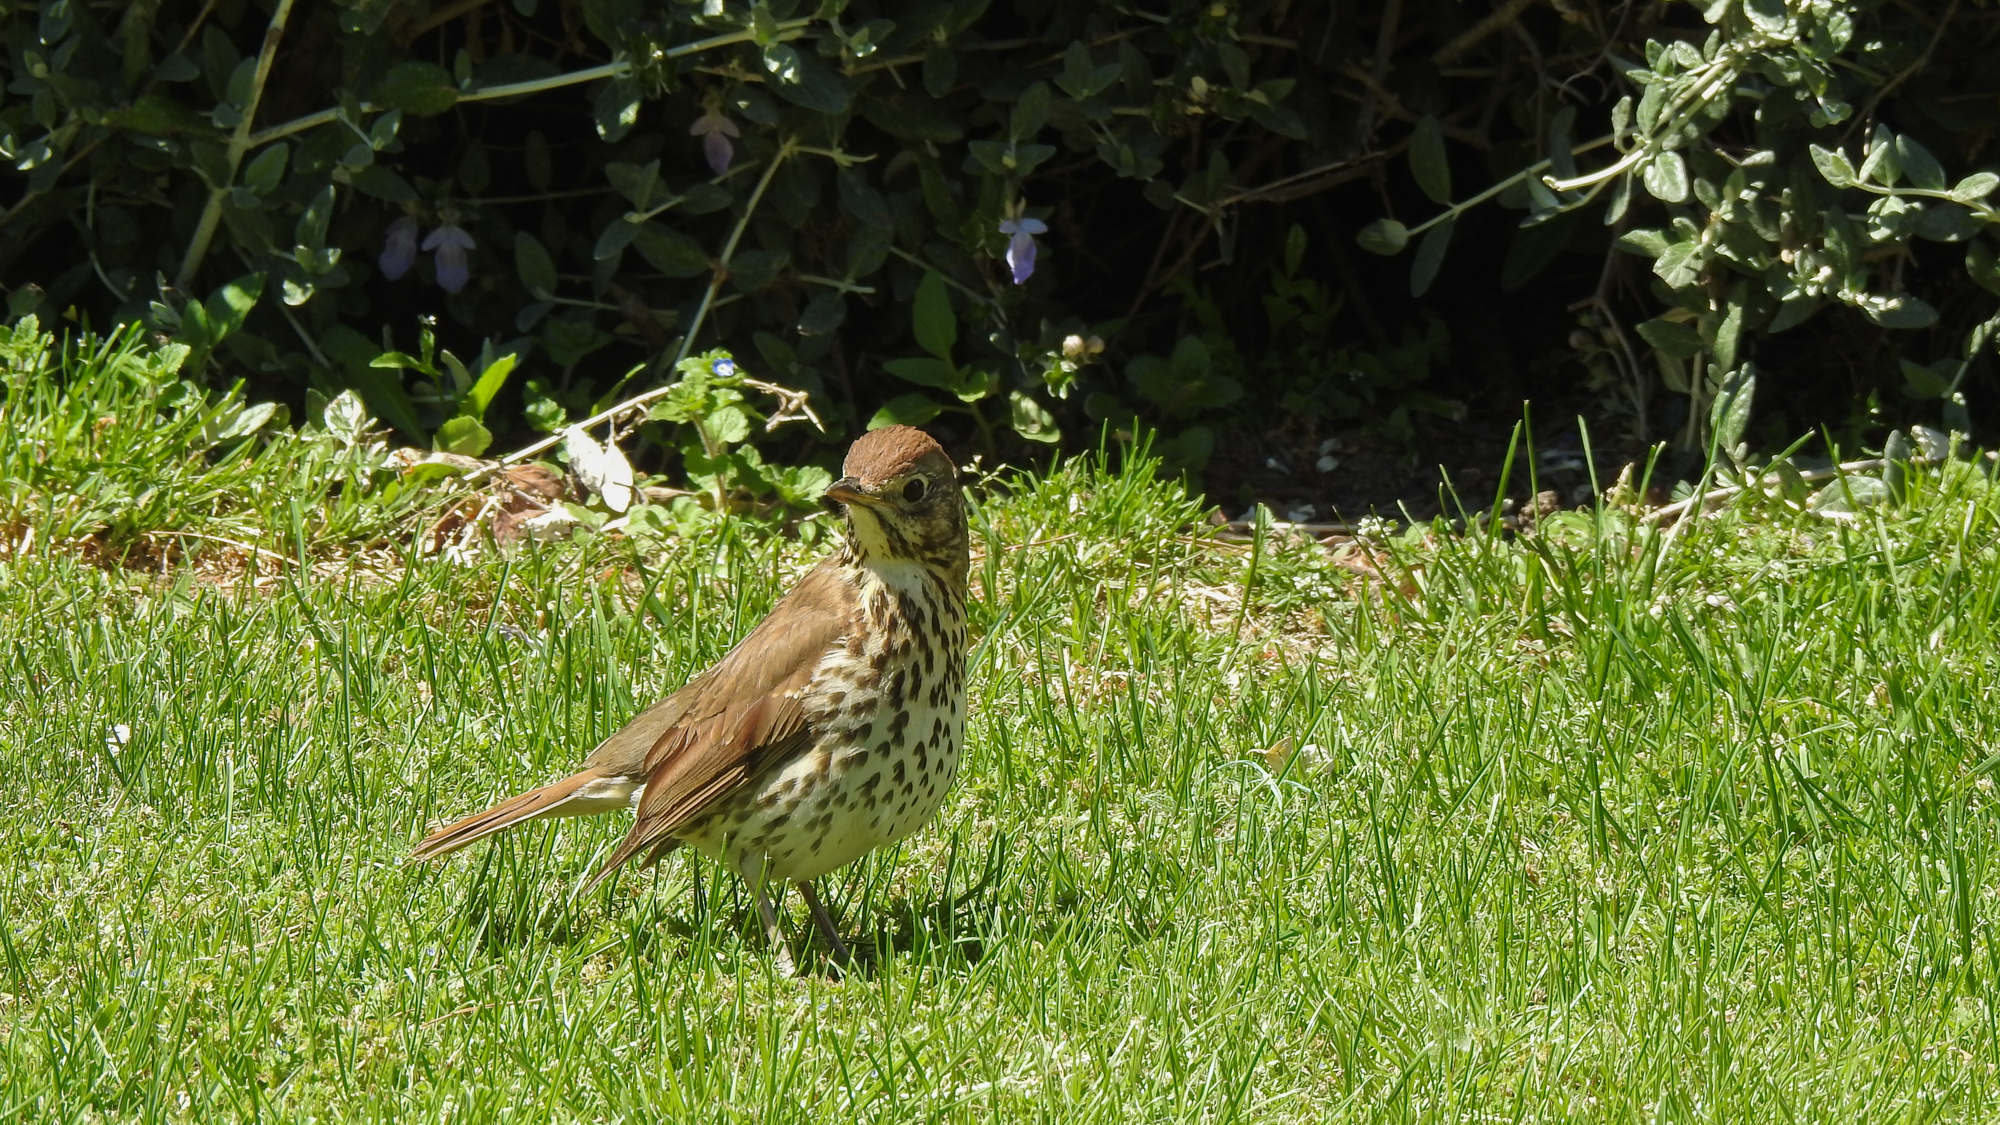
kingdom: Animalia
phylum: Chordata
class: Aves
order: Passeriformes
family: Turdidae
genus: Turdus
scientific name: Turdus philomelos
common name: Song thrush
